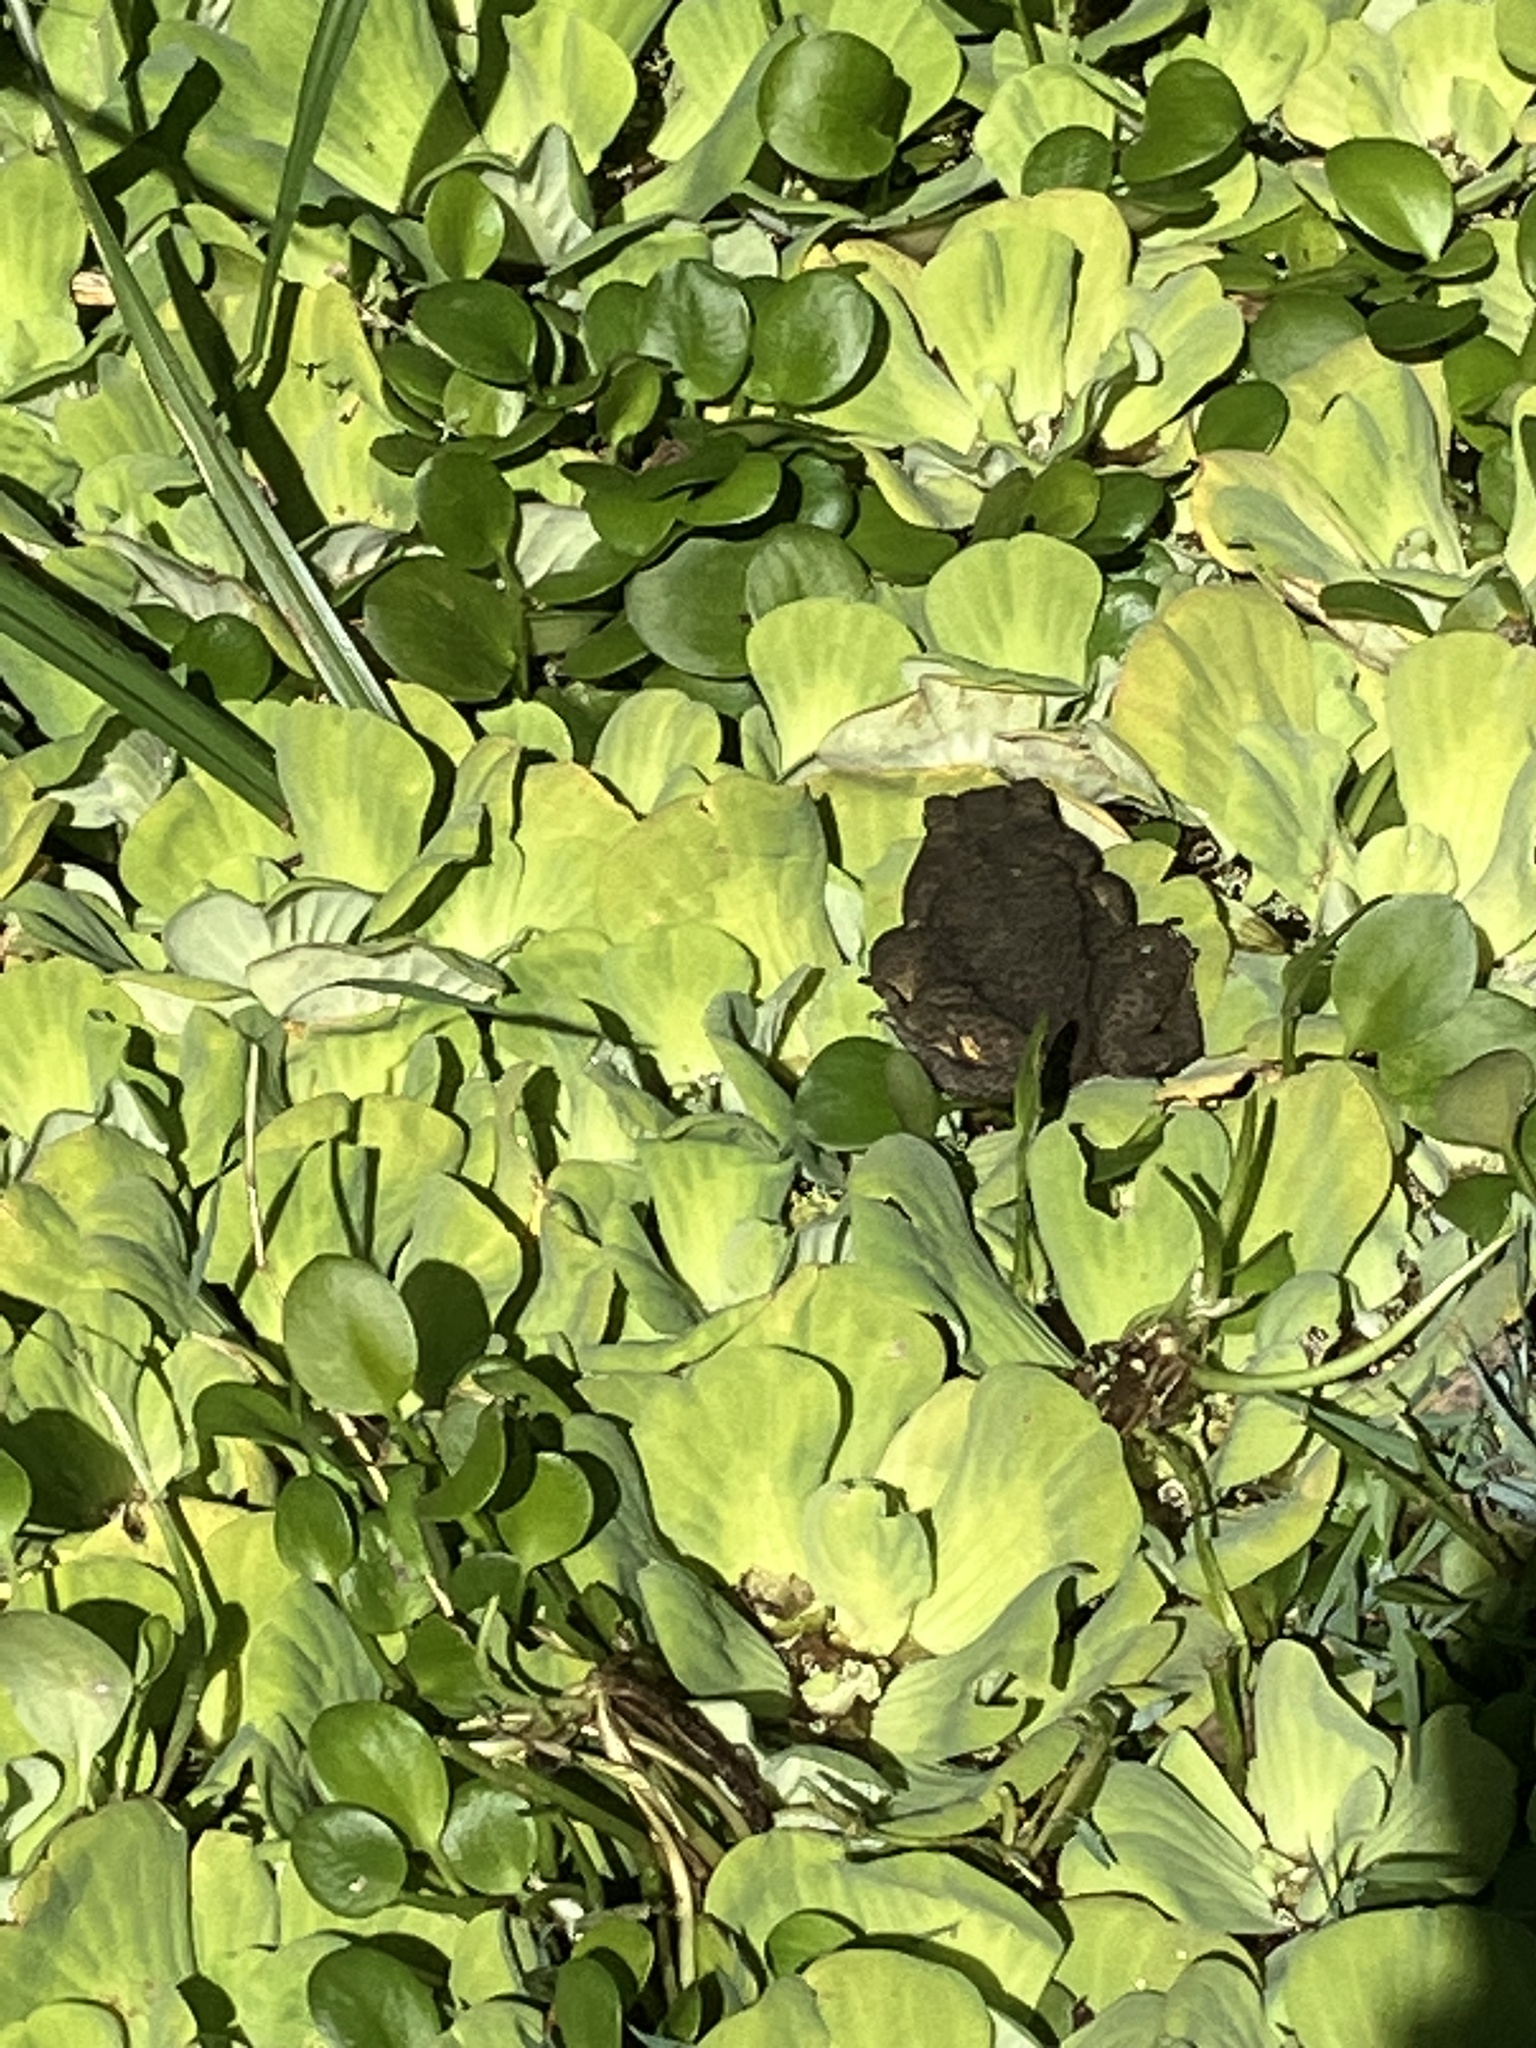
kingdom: Animalia
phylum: Chordata
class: Amphibia
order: Anura
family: Bufonidae
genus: Rhinella
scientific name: Rhinella marina
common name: Cane toad
